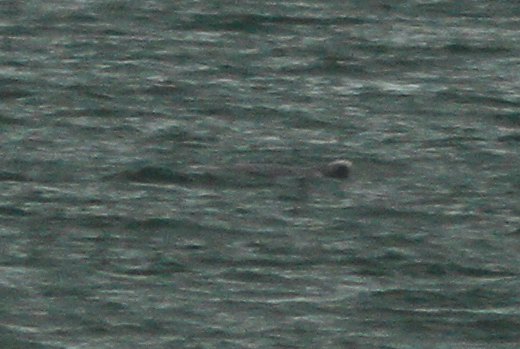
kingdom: Animalia
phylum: Chordata
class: Mammalia
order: Cetacea
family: Delphinidae
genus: Sousa
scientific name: Sousa sahulensis
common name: Australian humpback dolphin
